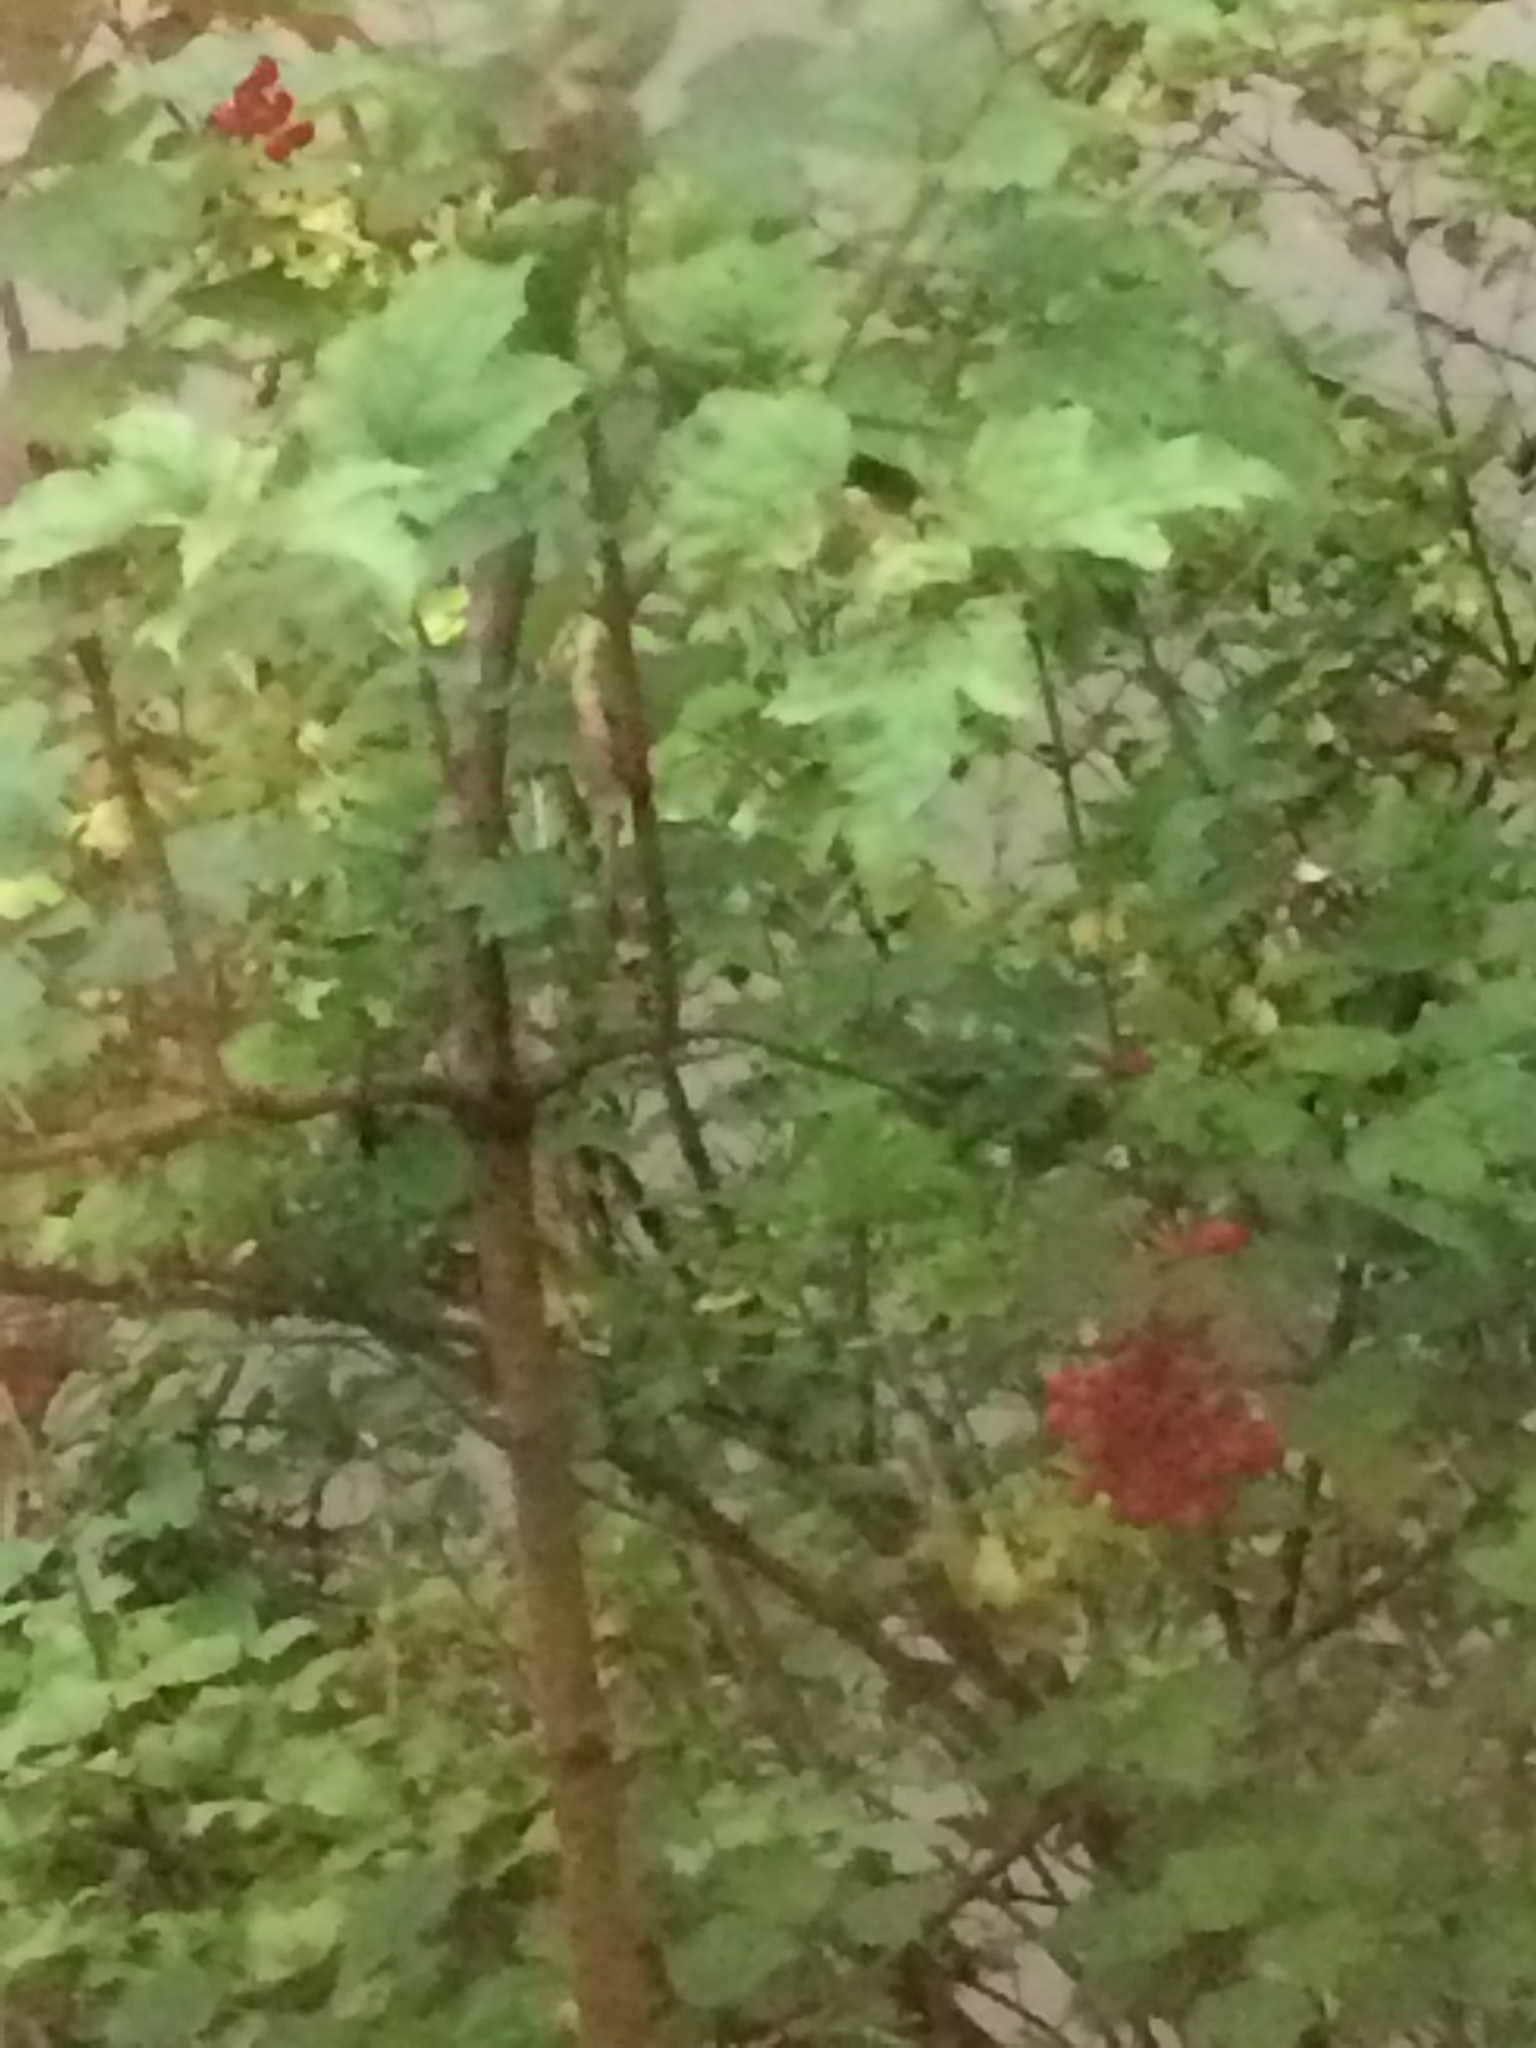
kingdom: Plantae
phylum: Tracheophyta
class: Magnoliopsida
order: Dipsacales
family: Viburnaceae
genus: Viburnum
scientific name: Viburnum opulus
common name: Guelder-rose
